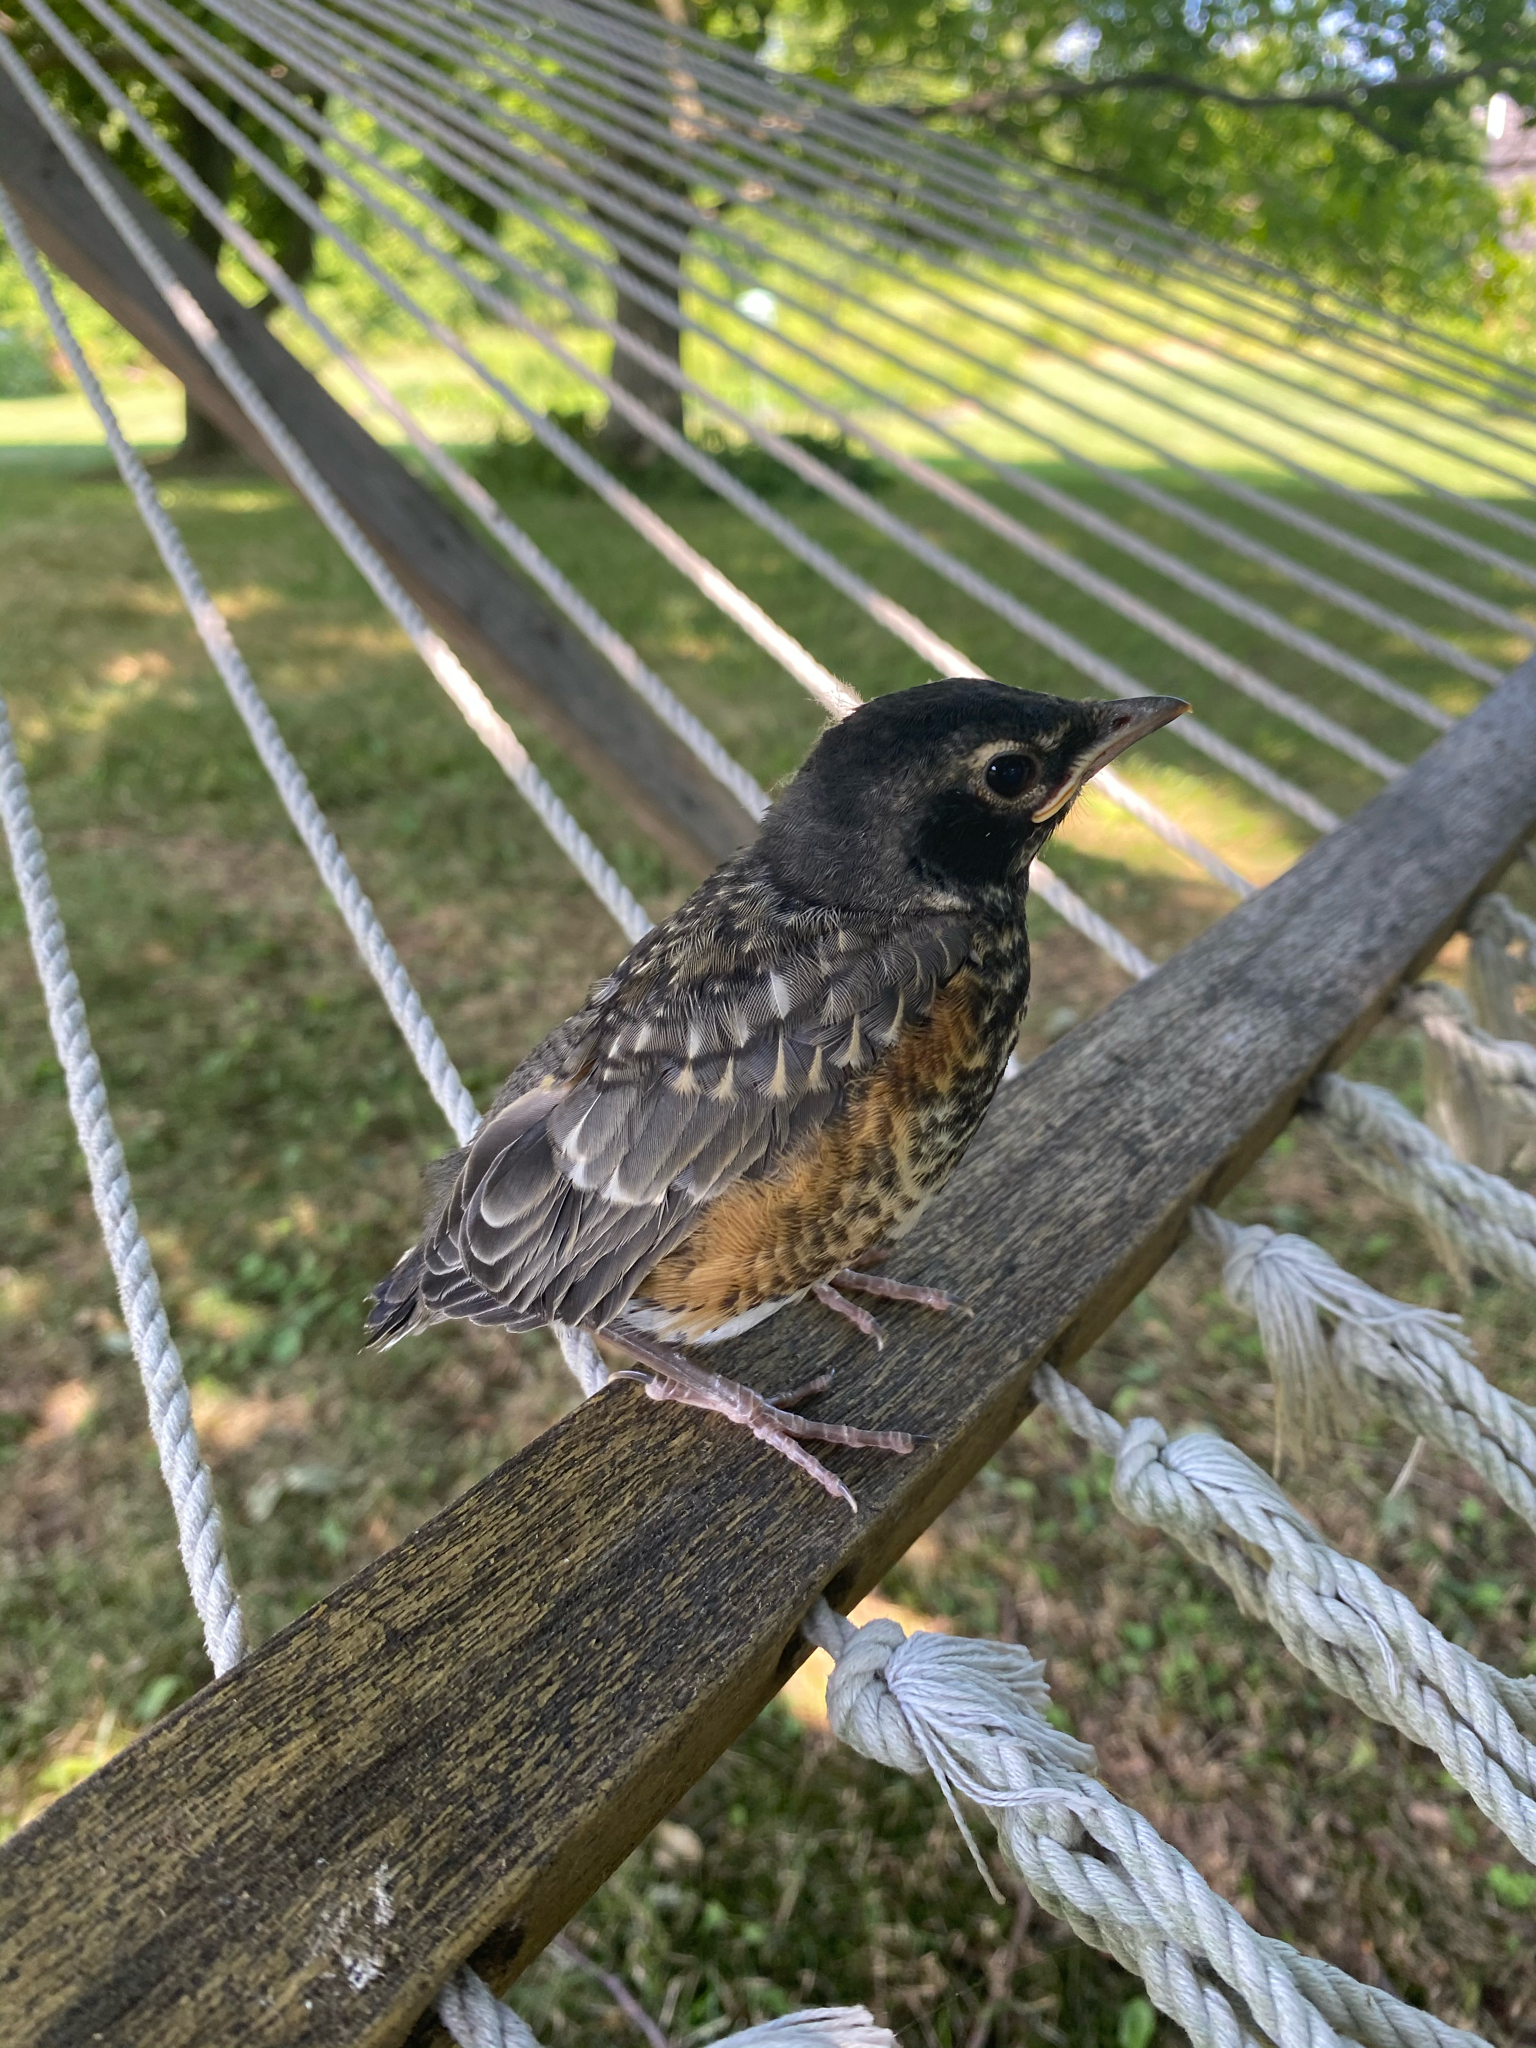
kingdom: Animalia
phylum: Chordata
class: Aves
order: Passeriformes
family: Turdidae
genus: Turdus
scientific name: Turdus migratorius
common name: American robin
